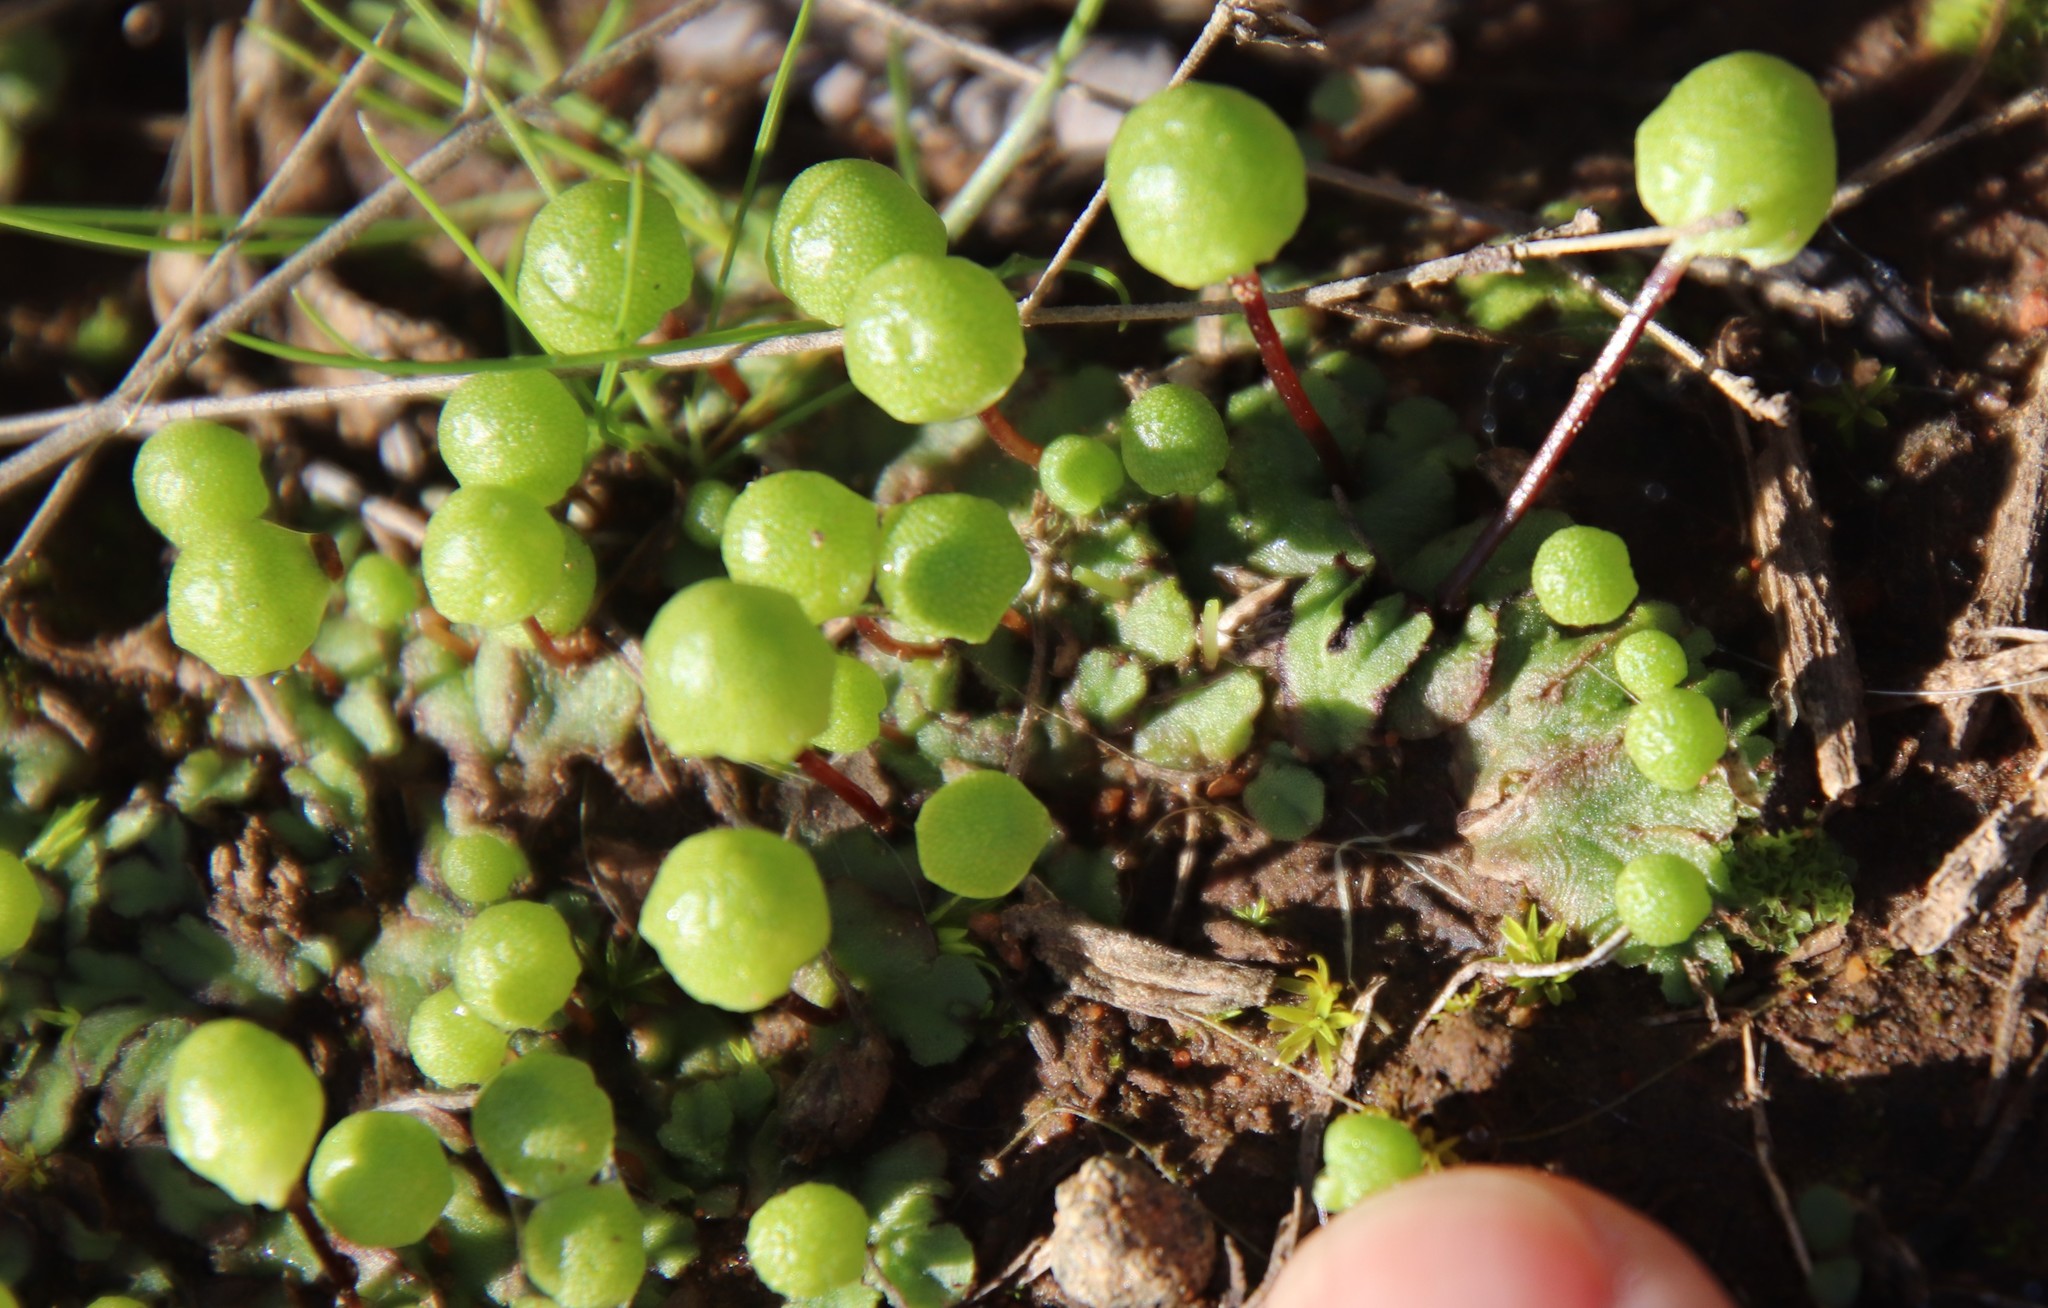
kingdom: Plantae
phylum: Marchantiophyta
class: Marchantiopsida
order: Marchantiales
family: Aytoniaceae
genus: Asterella
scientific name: Asterella palmeri
